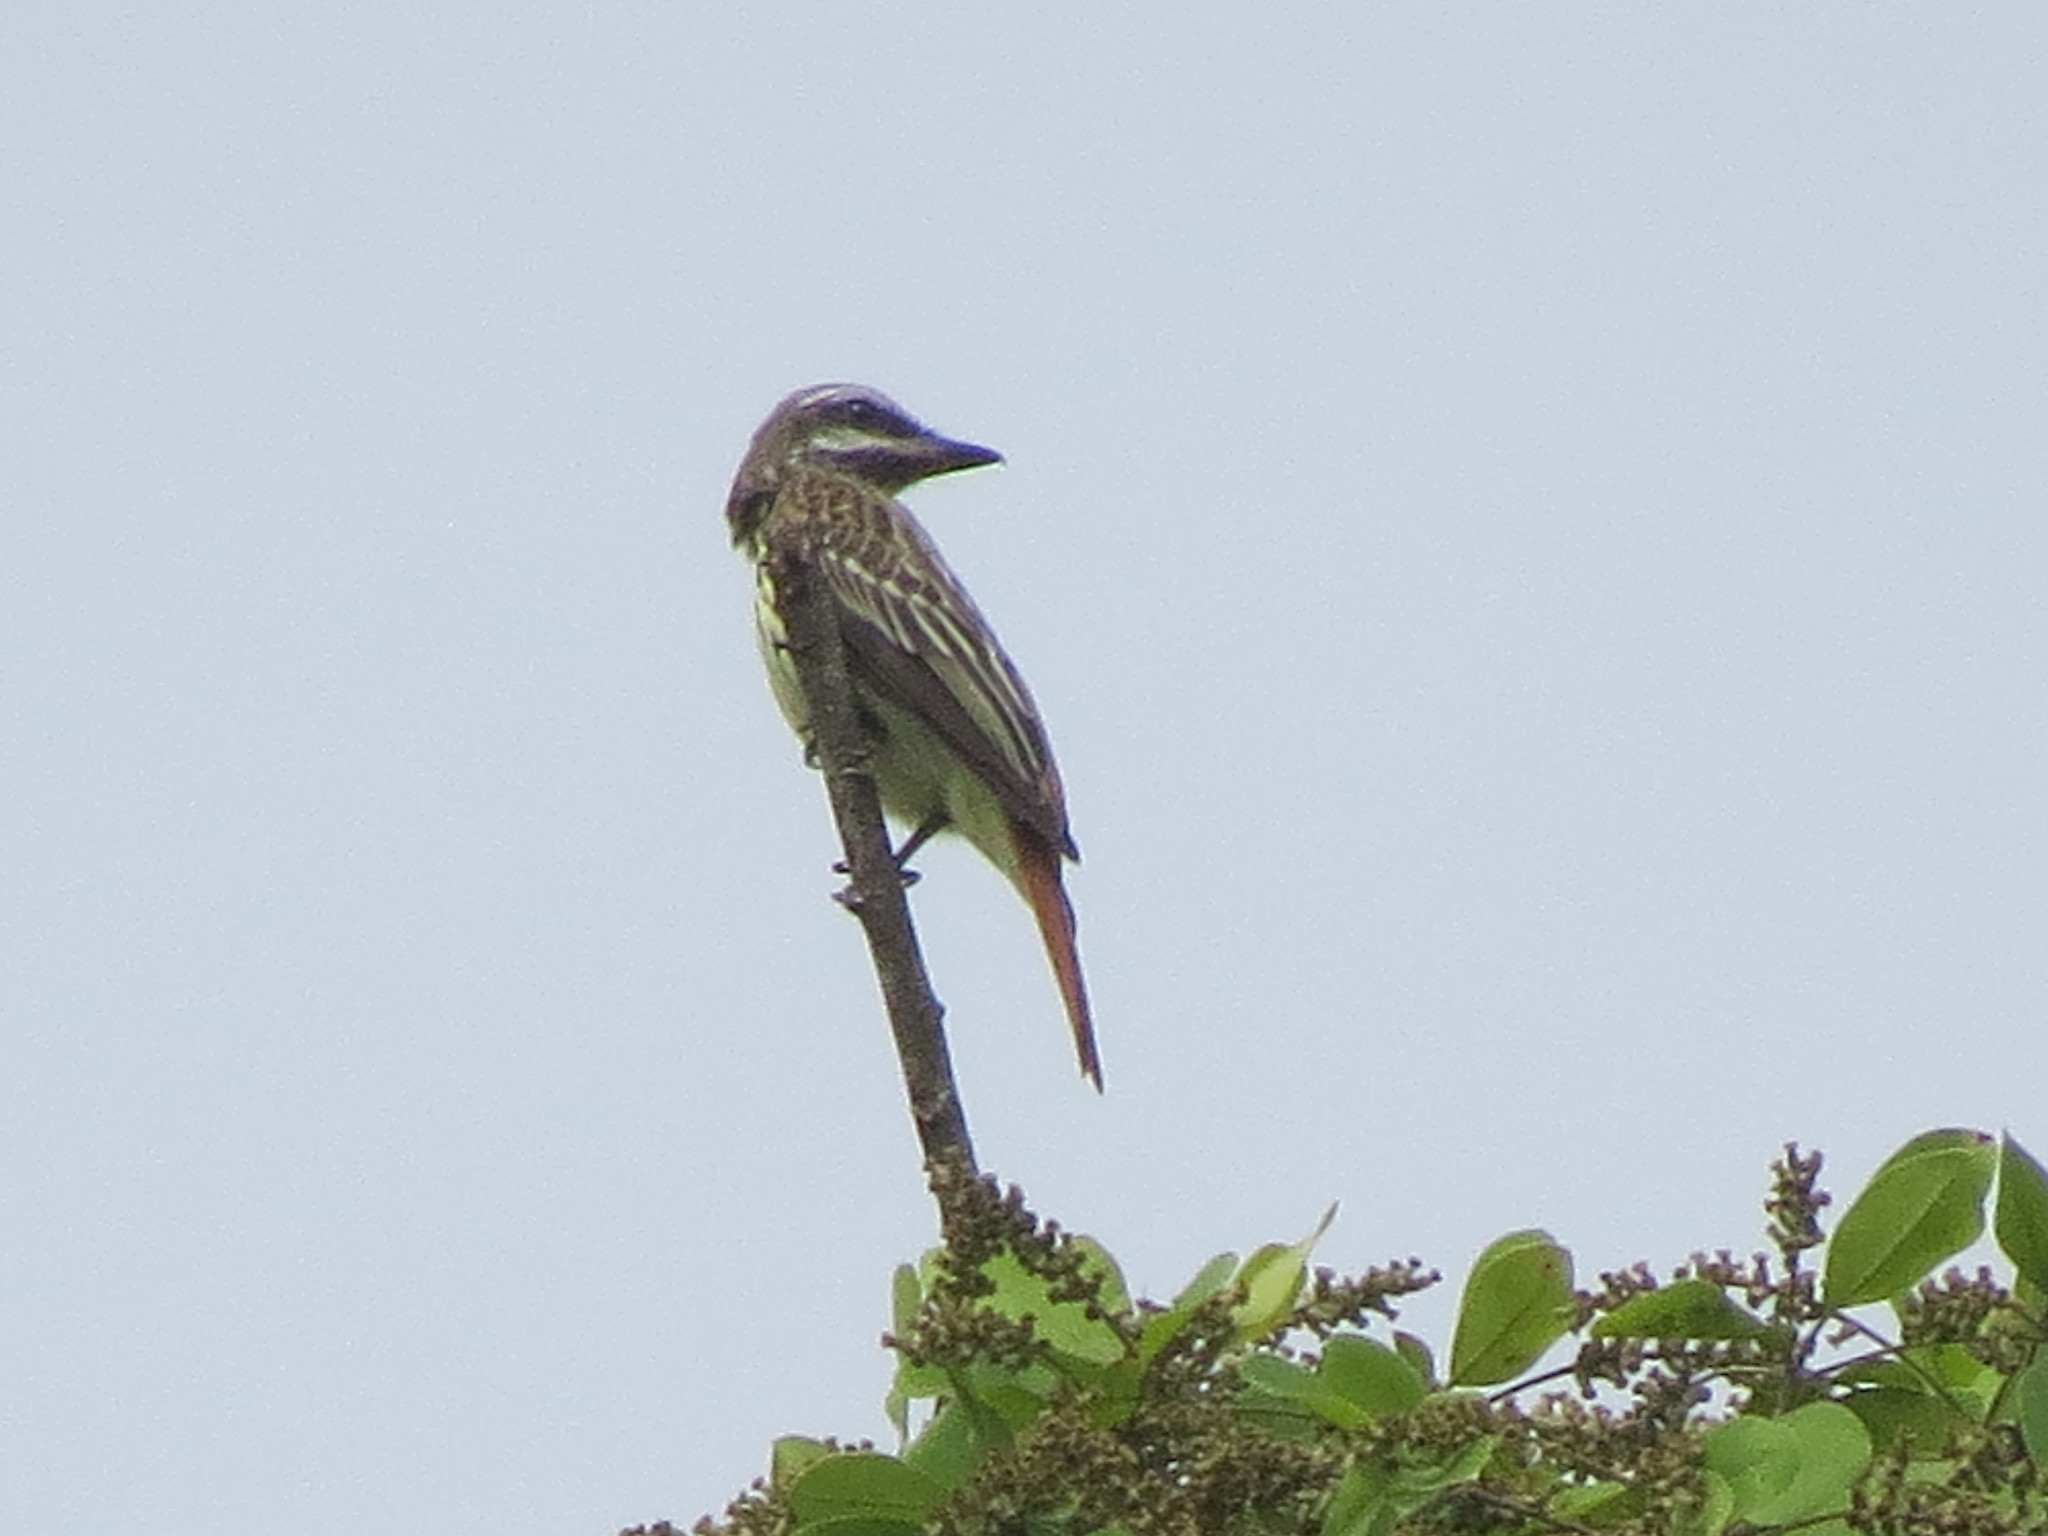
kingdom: Animalia
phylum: Chordata
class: Aves
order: Passeriformes
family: Tyrannidae
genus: Myiodynastes
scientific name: Myiodynastes luteiventris
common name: Sulphur-bellied flycatcher
